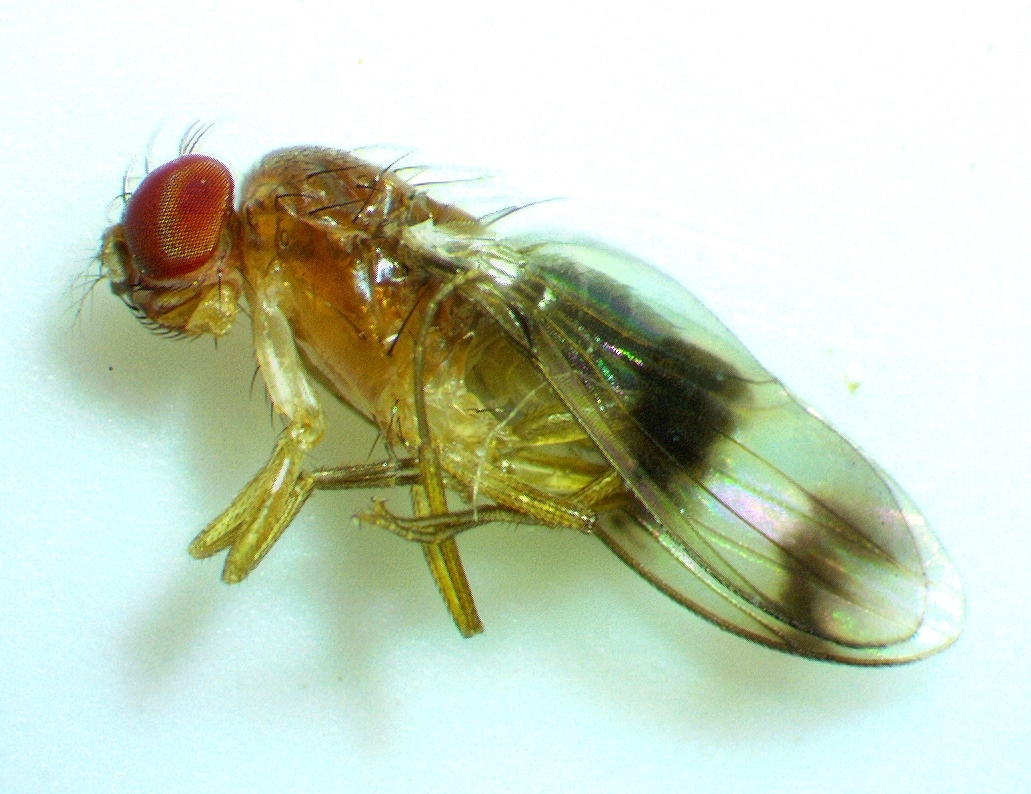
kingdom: Animalia
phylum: Arthropoda
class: Insecta
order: Diptera
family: Drosophilidae
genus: Chymomyza
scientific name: Chymomyza amoena
